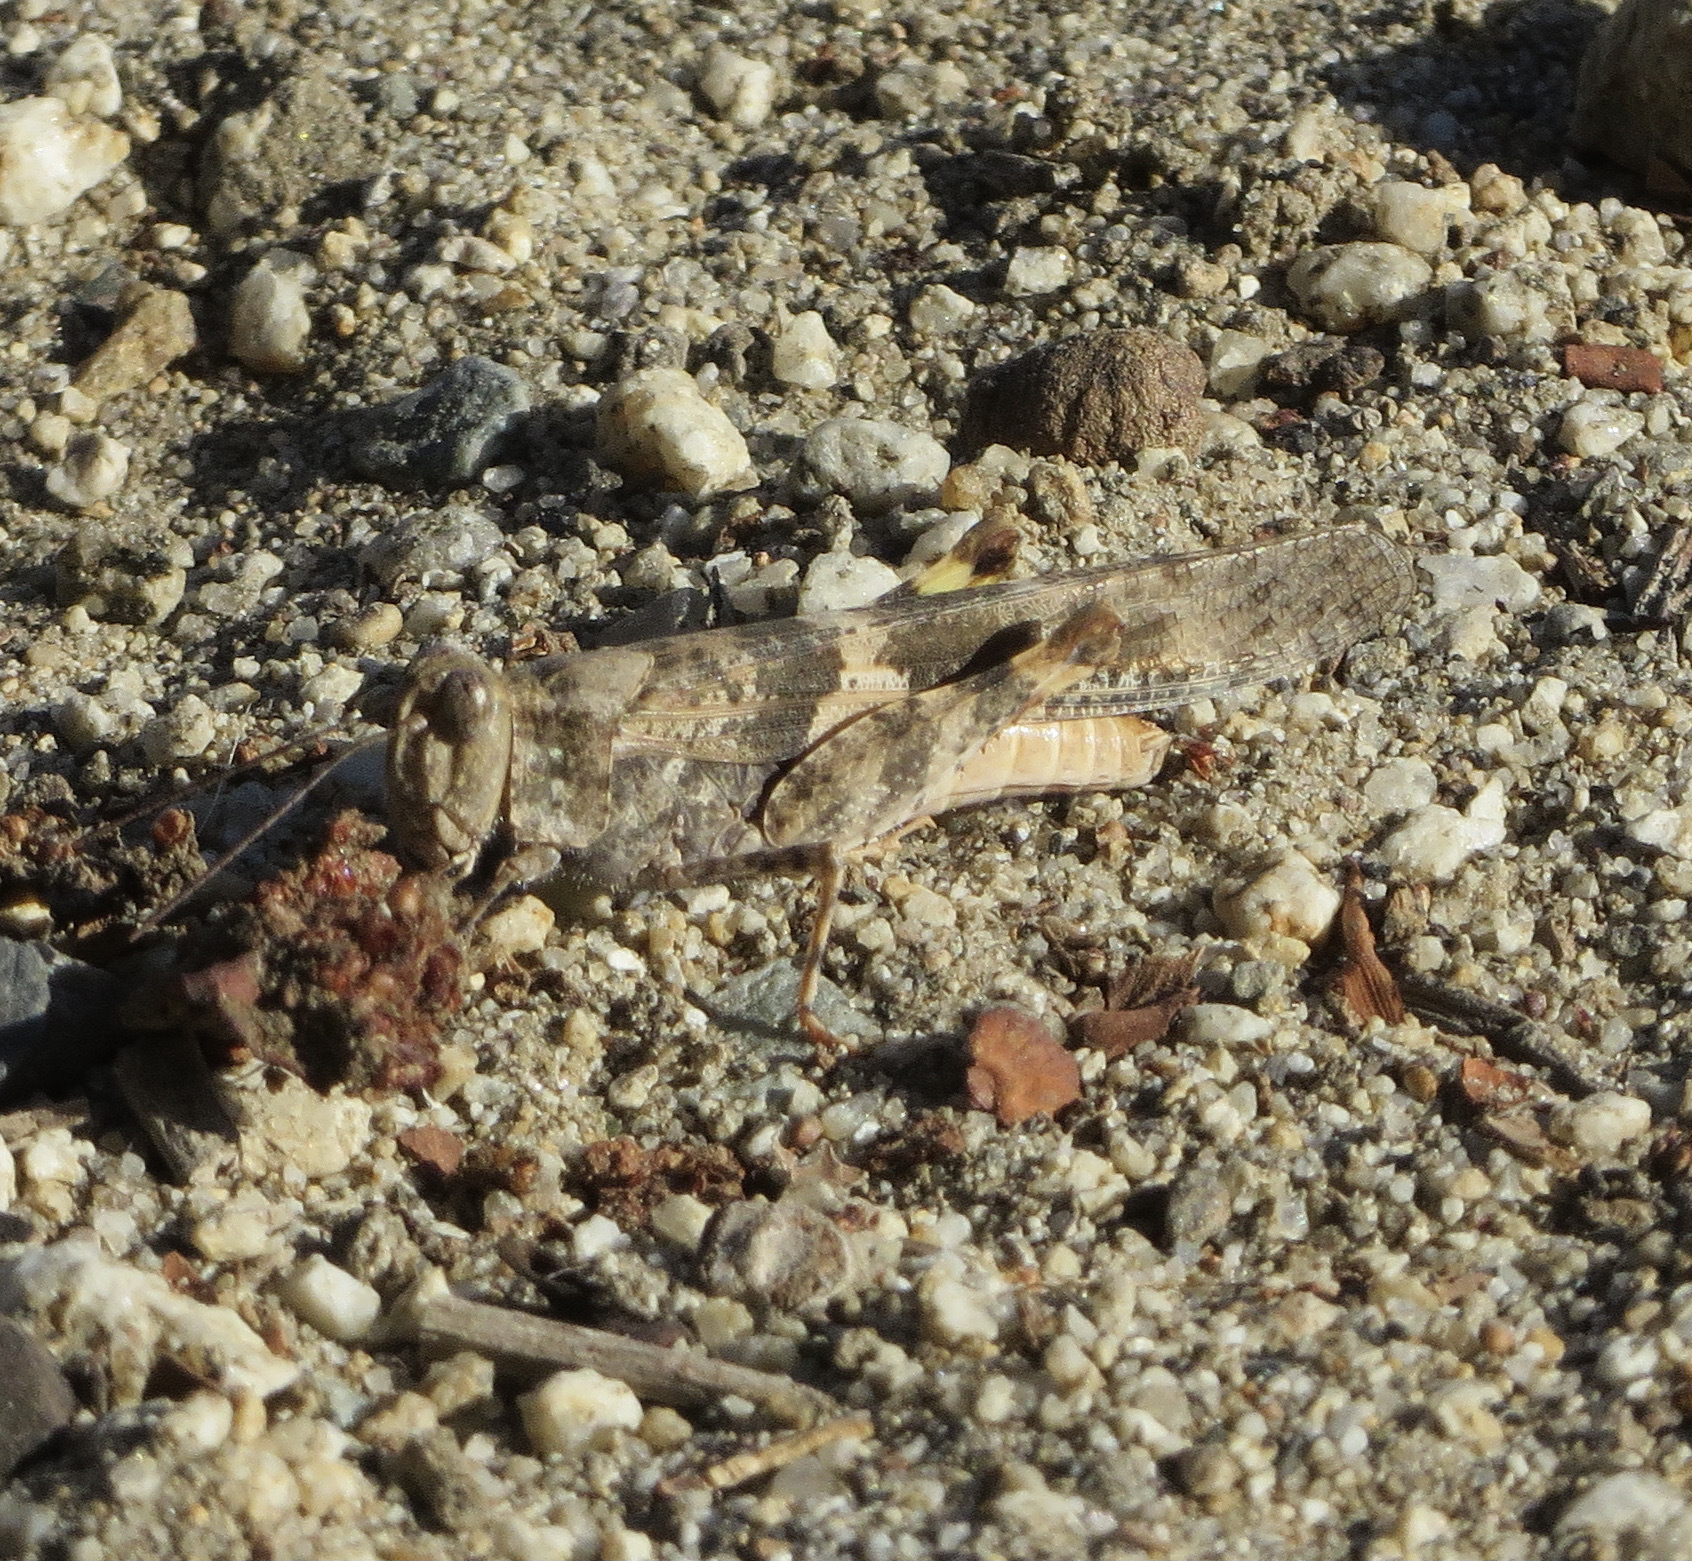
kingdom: Animalia
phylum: Arthropoda
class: Insecta
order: Orthoptera
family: Acrididae
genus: Trimerotropis
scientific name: Trimerotropis pallidipennis
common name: Pallid-winged grasshopper
